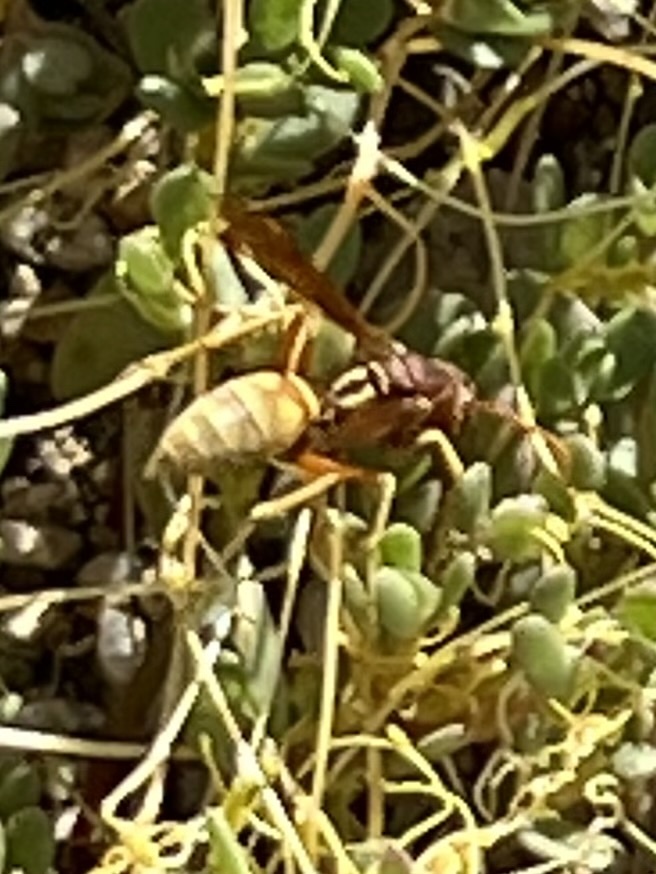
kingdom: Animalia
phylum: Arthropoda
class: Insecta
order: Hymenoptera
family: Eumenidae
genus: Polistes
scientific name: Polistes aurifer
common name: Paper wasp
